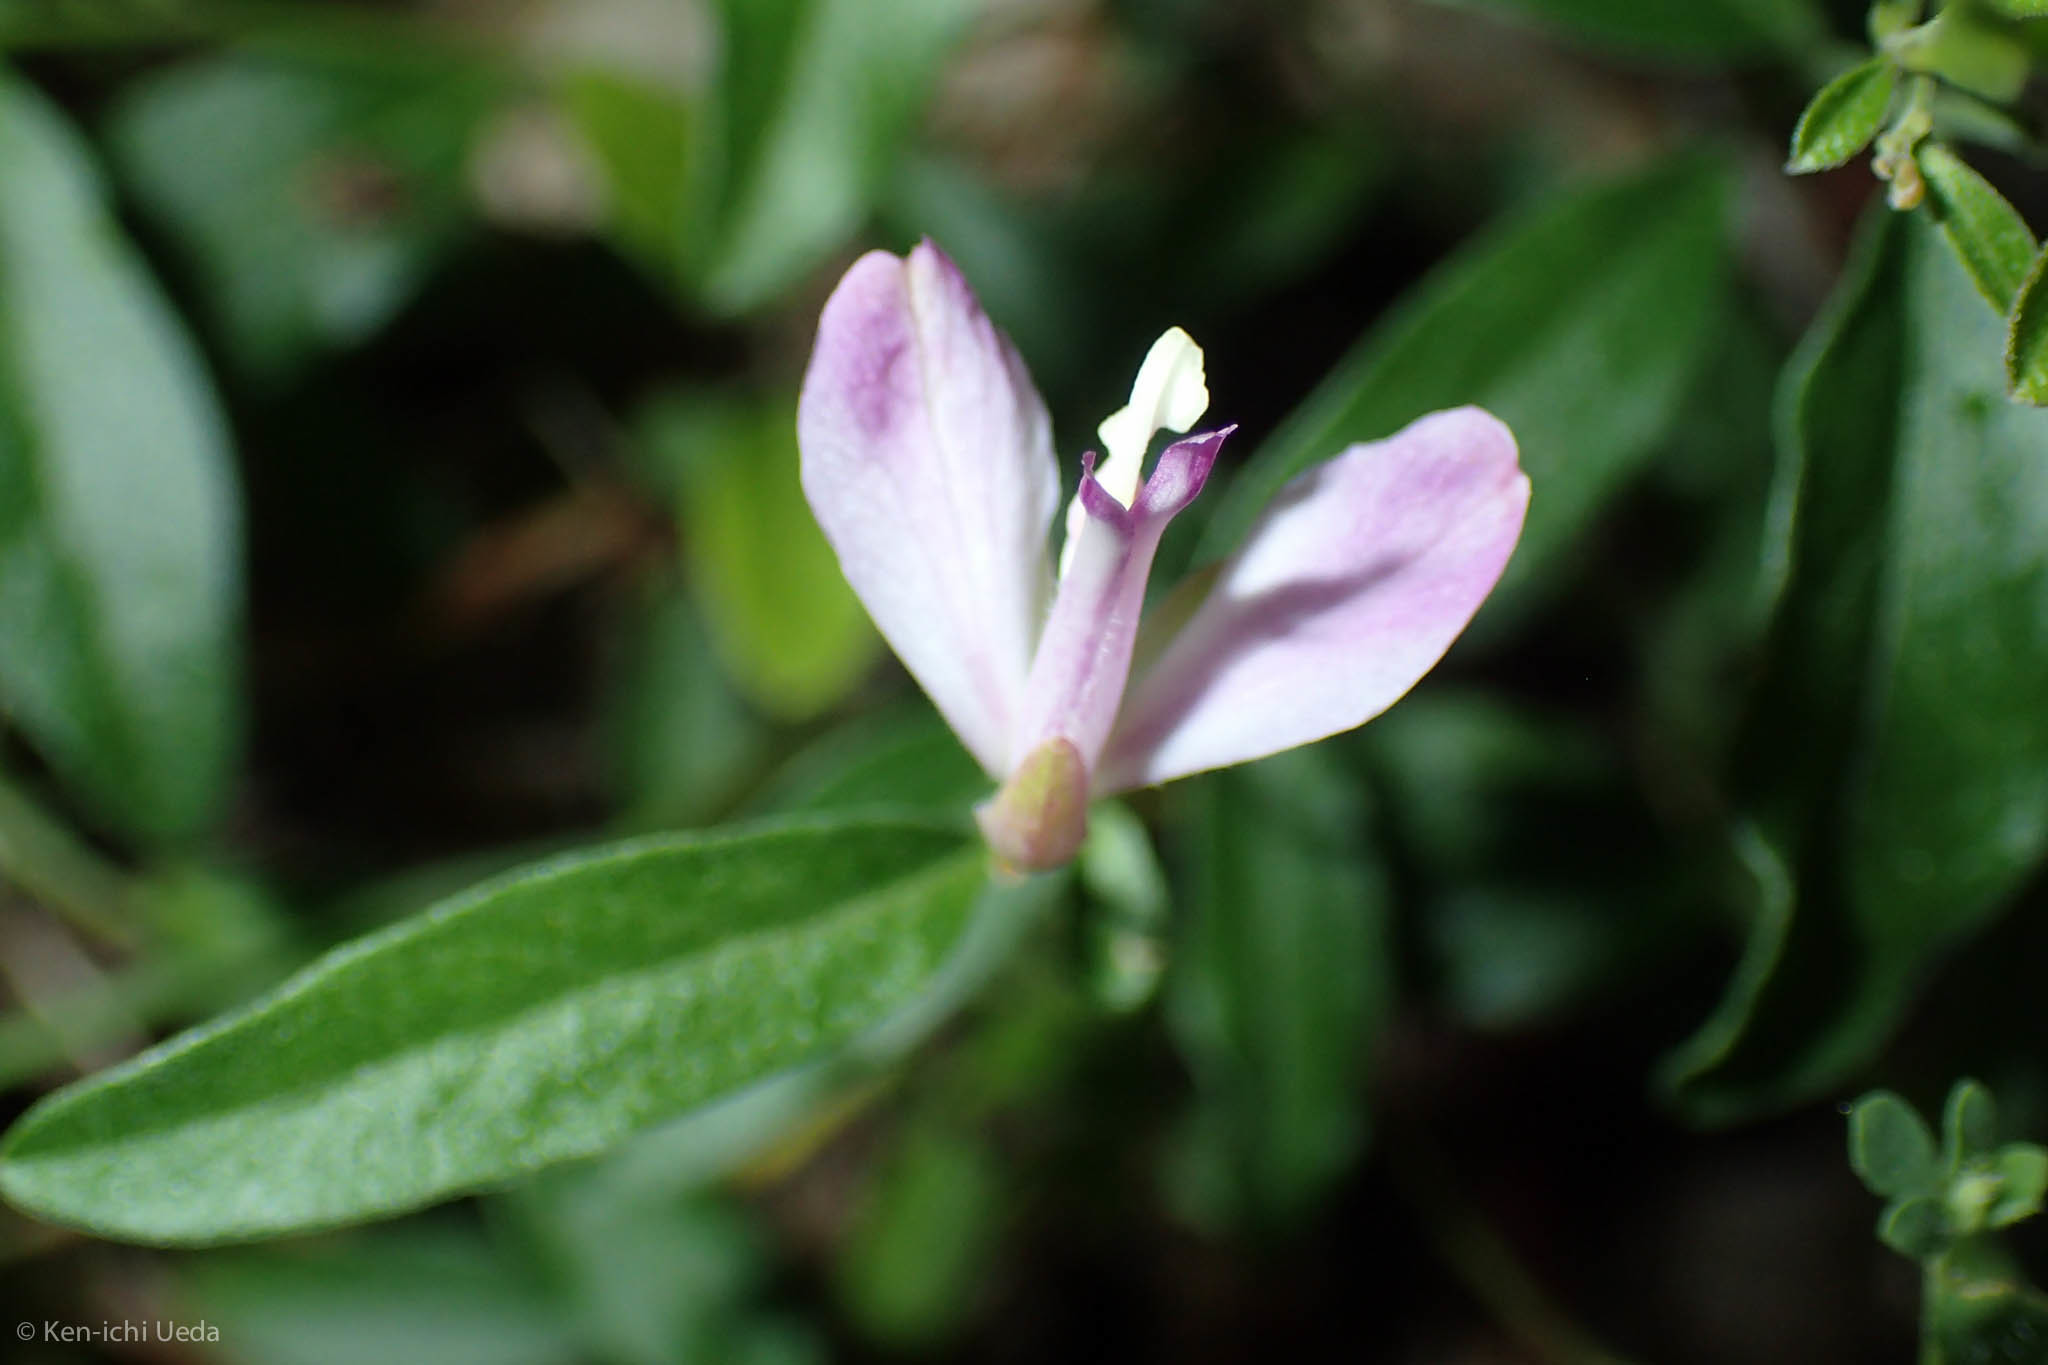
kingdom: Plantae
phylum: Tracheophyta
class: Magnoliopsida
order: Fabales
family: Polygalaceae
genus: Rhinotropis
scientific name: Rhinotropis californica
